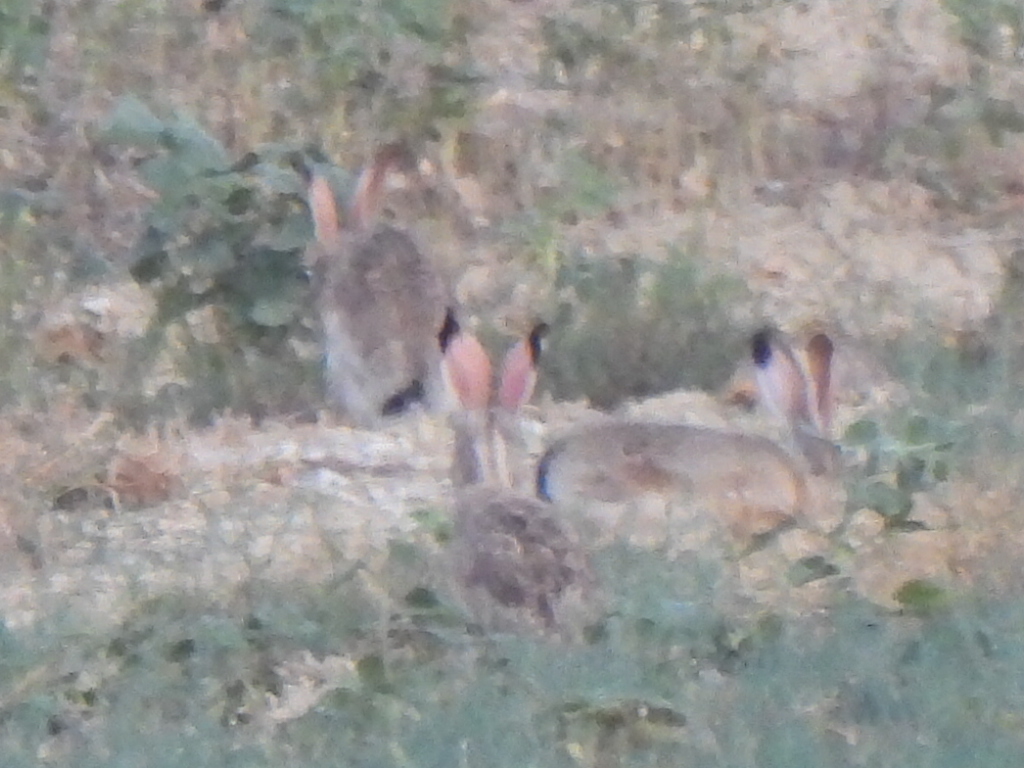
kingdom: Animalia
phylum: Chordata
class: Mammalia
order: Lagomorpha
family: Leporidae
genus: Lepus
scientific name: Lepus californicus
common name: Black-tailed jackrabbit
